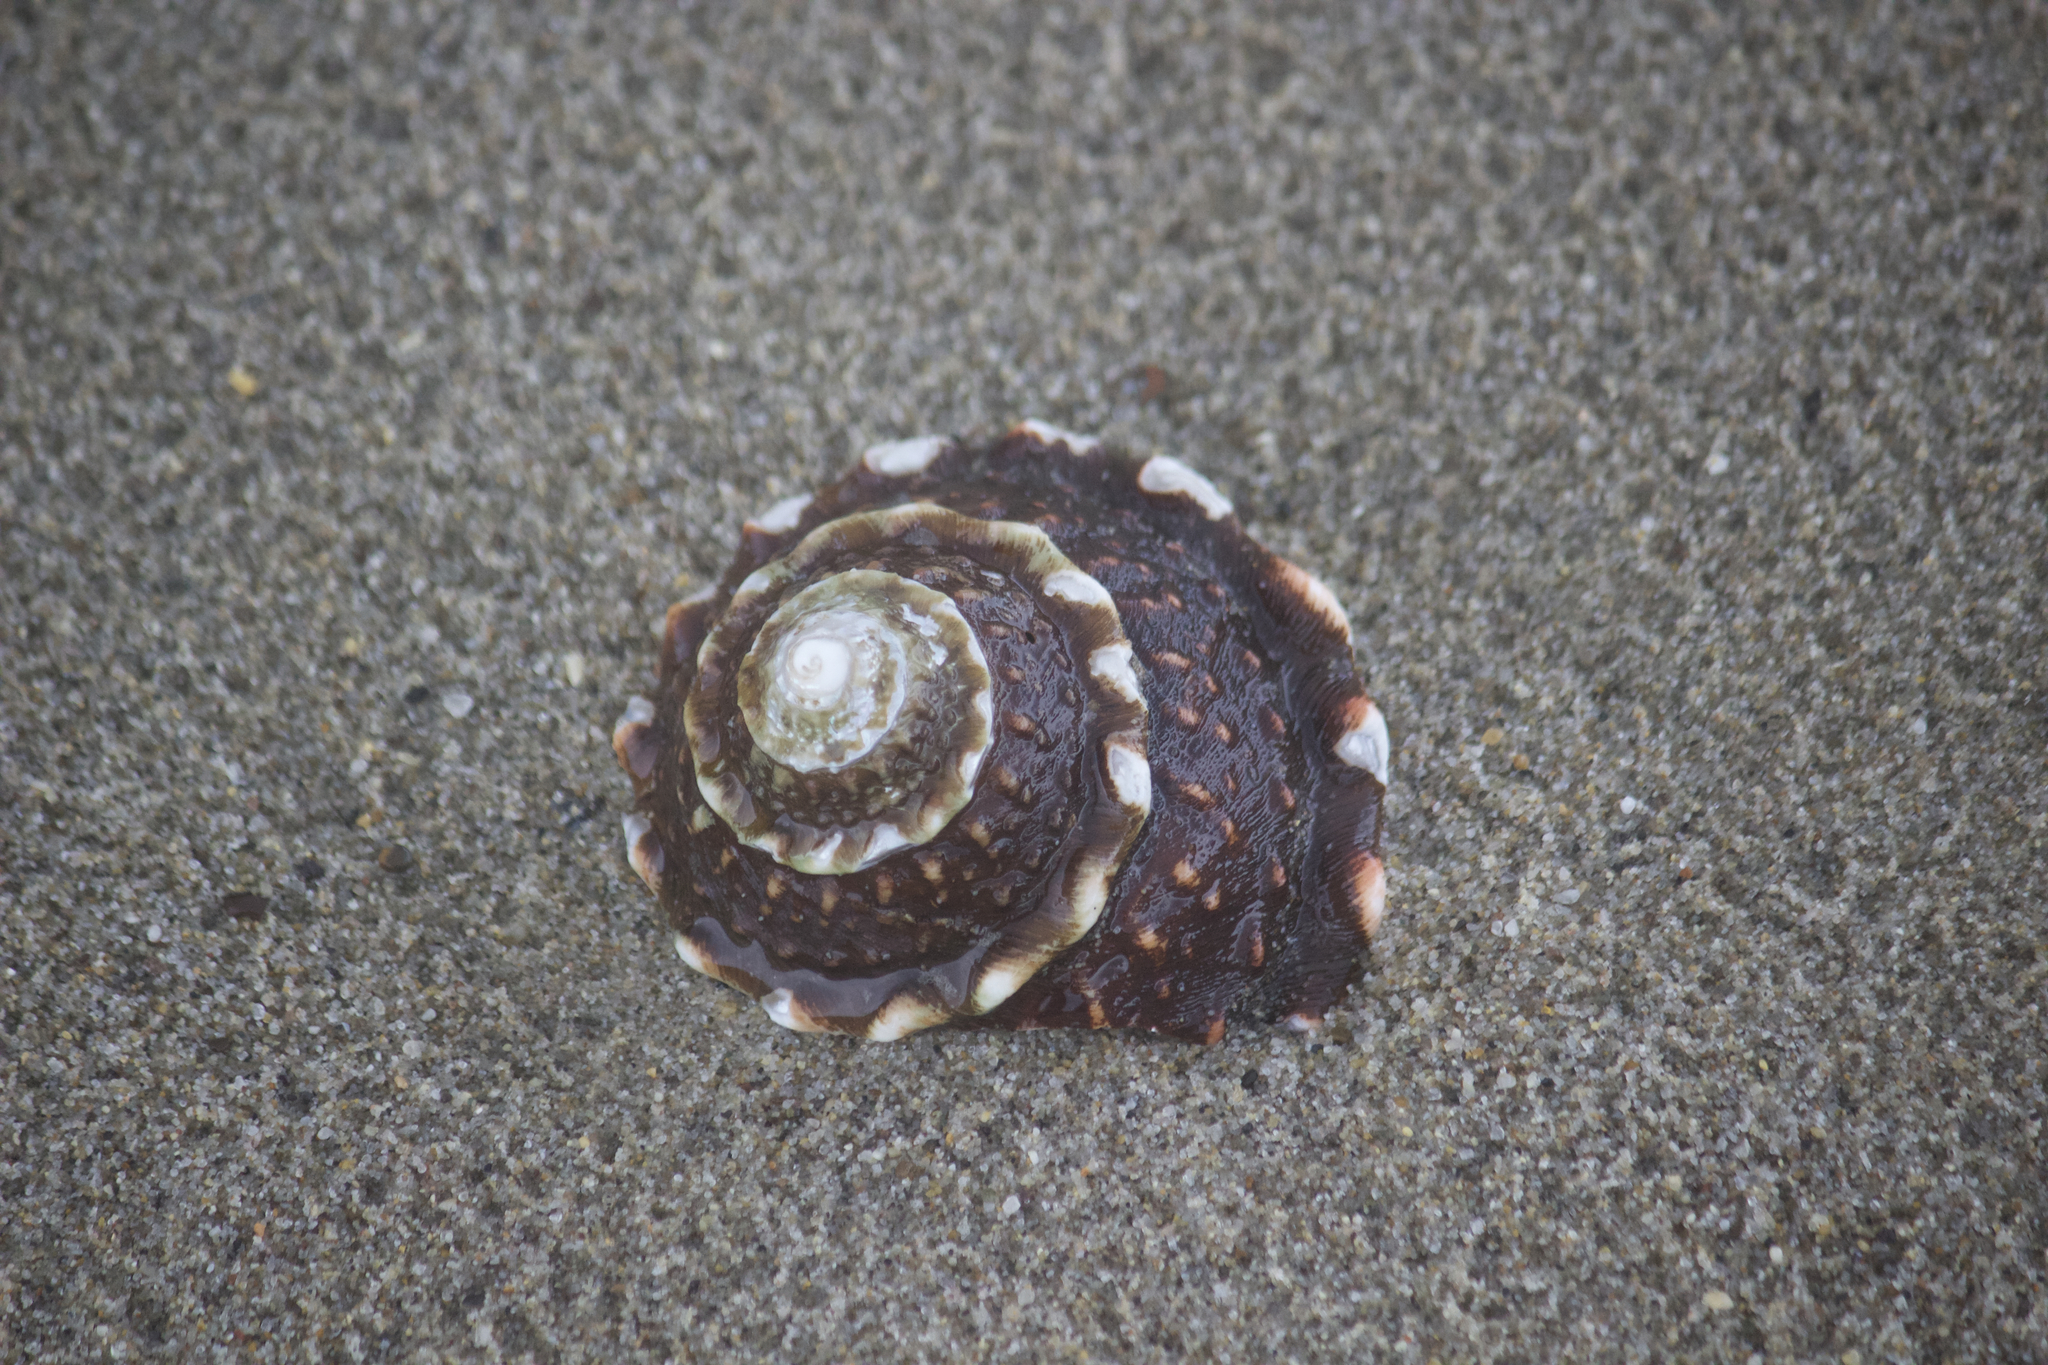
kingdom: Animalia
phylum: Mollusca
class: Gastropoda
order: Trochida
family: Turbinidae
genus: Megastraea
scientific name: Megastraea undosa
